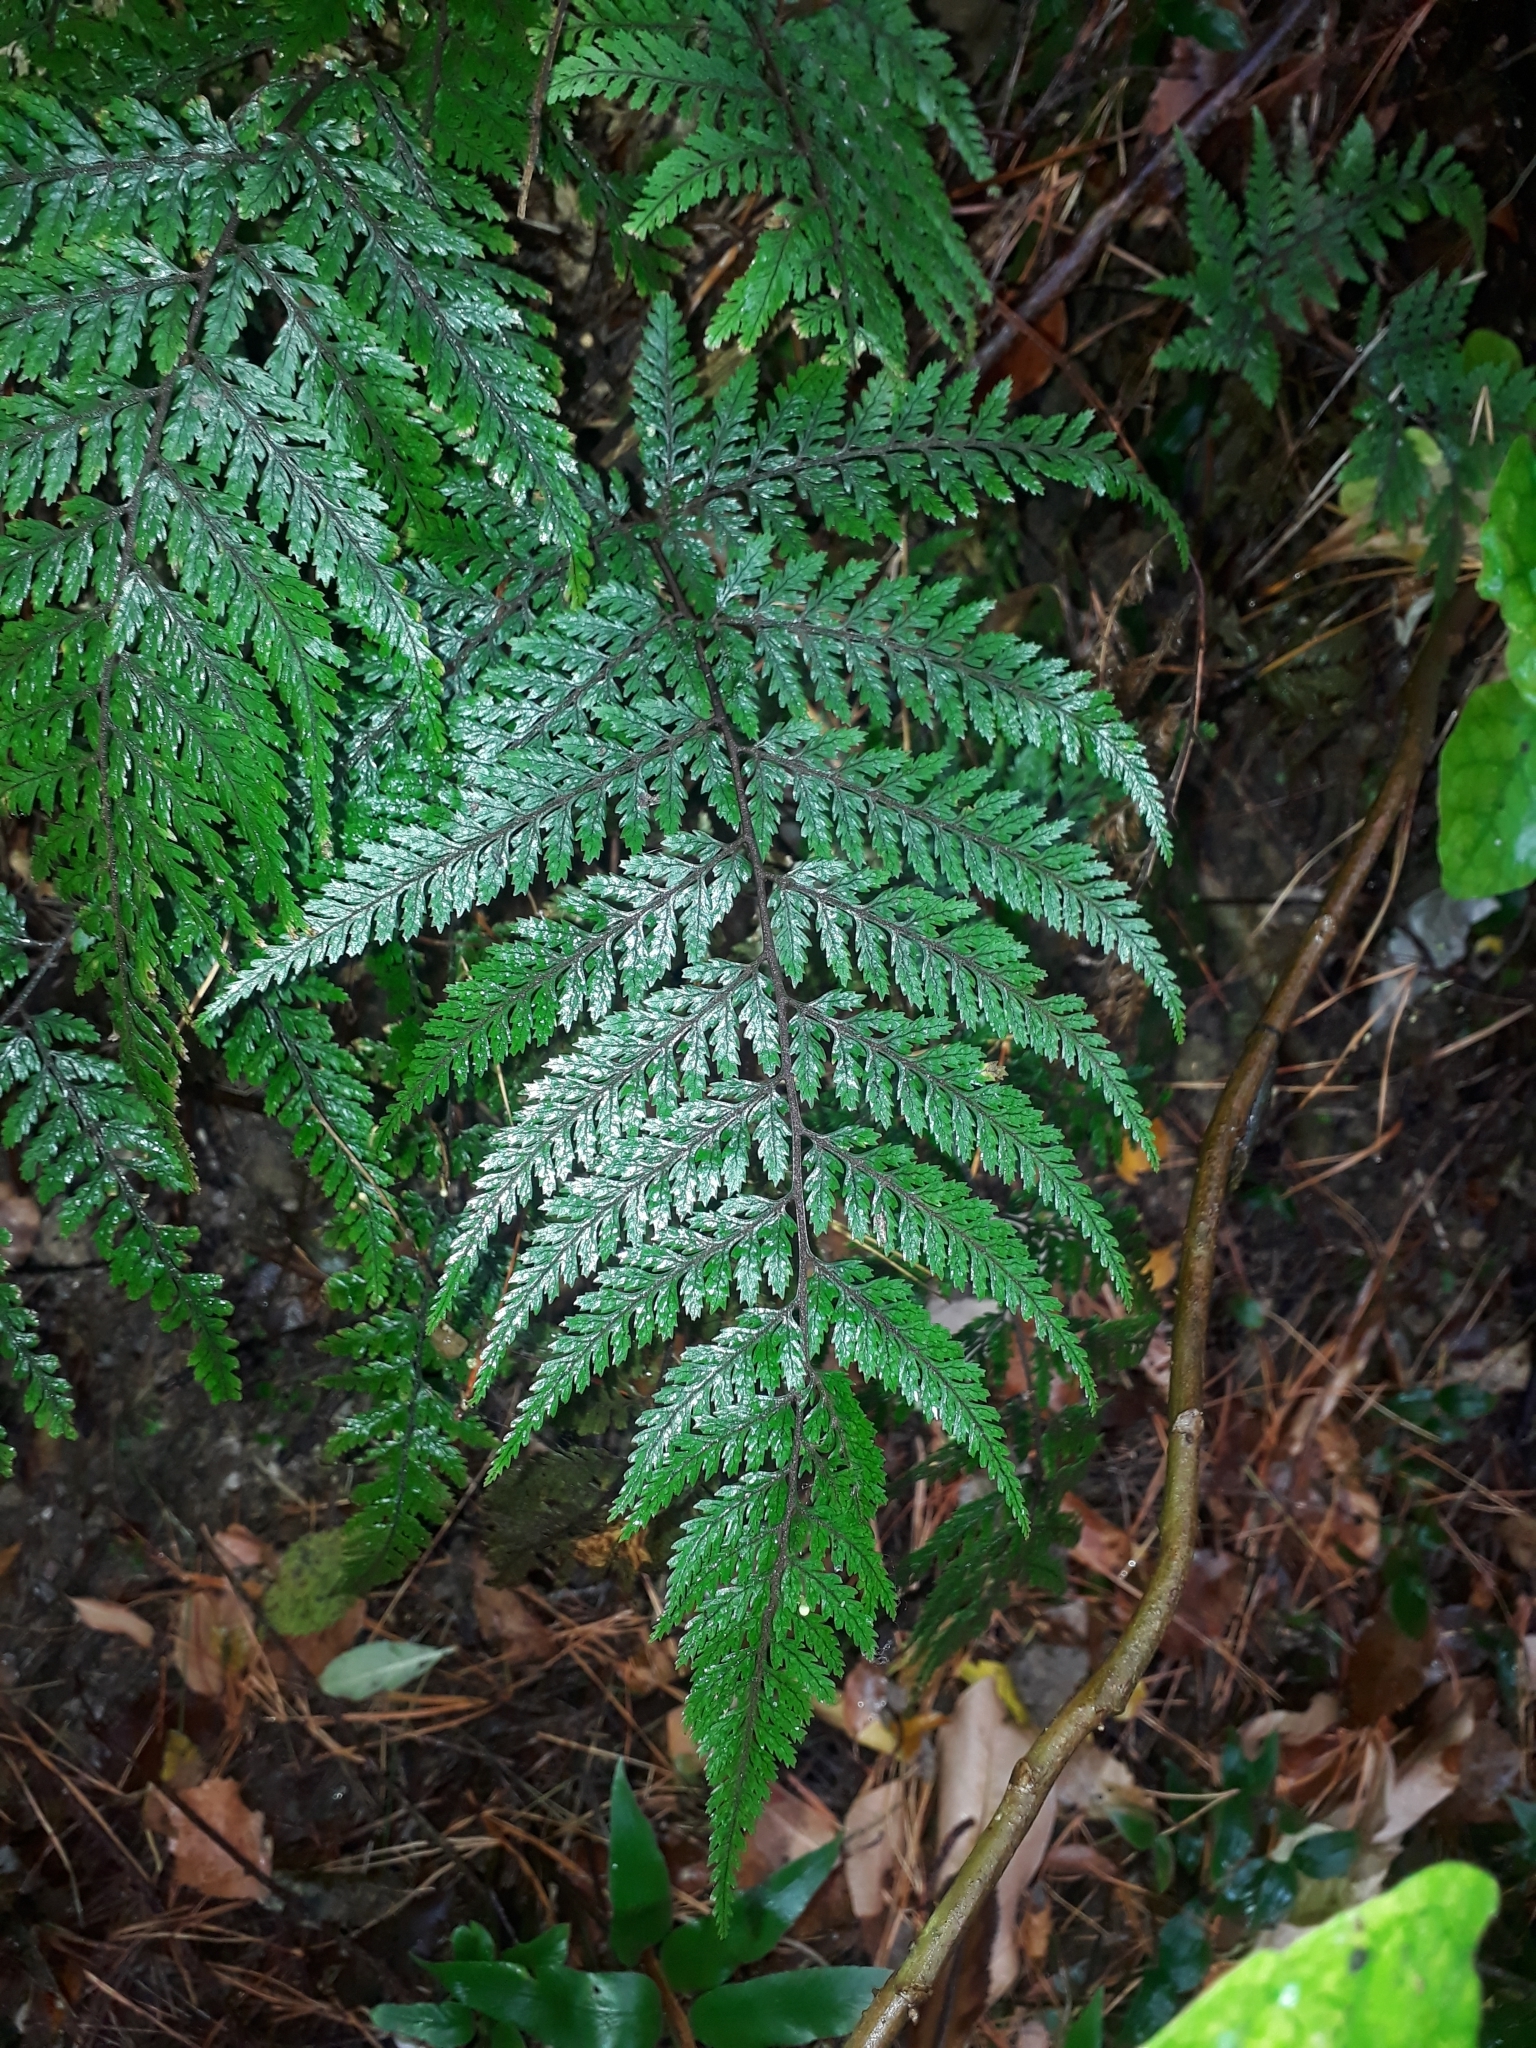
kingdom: Plantae
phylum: Tracheophyta
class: Polypodiopsida
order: Polypodiales
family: Dryopteridaceae
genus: Parapolystichum
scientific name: Parapolystichum glabellum
